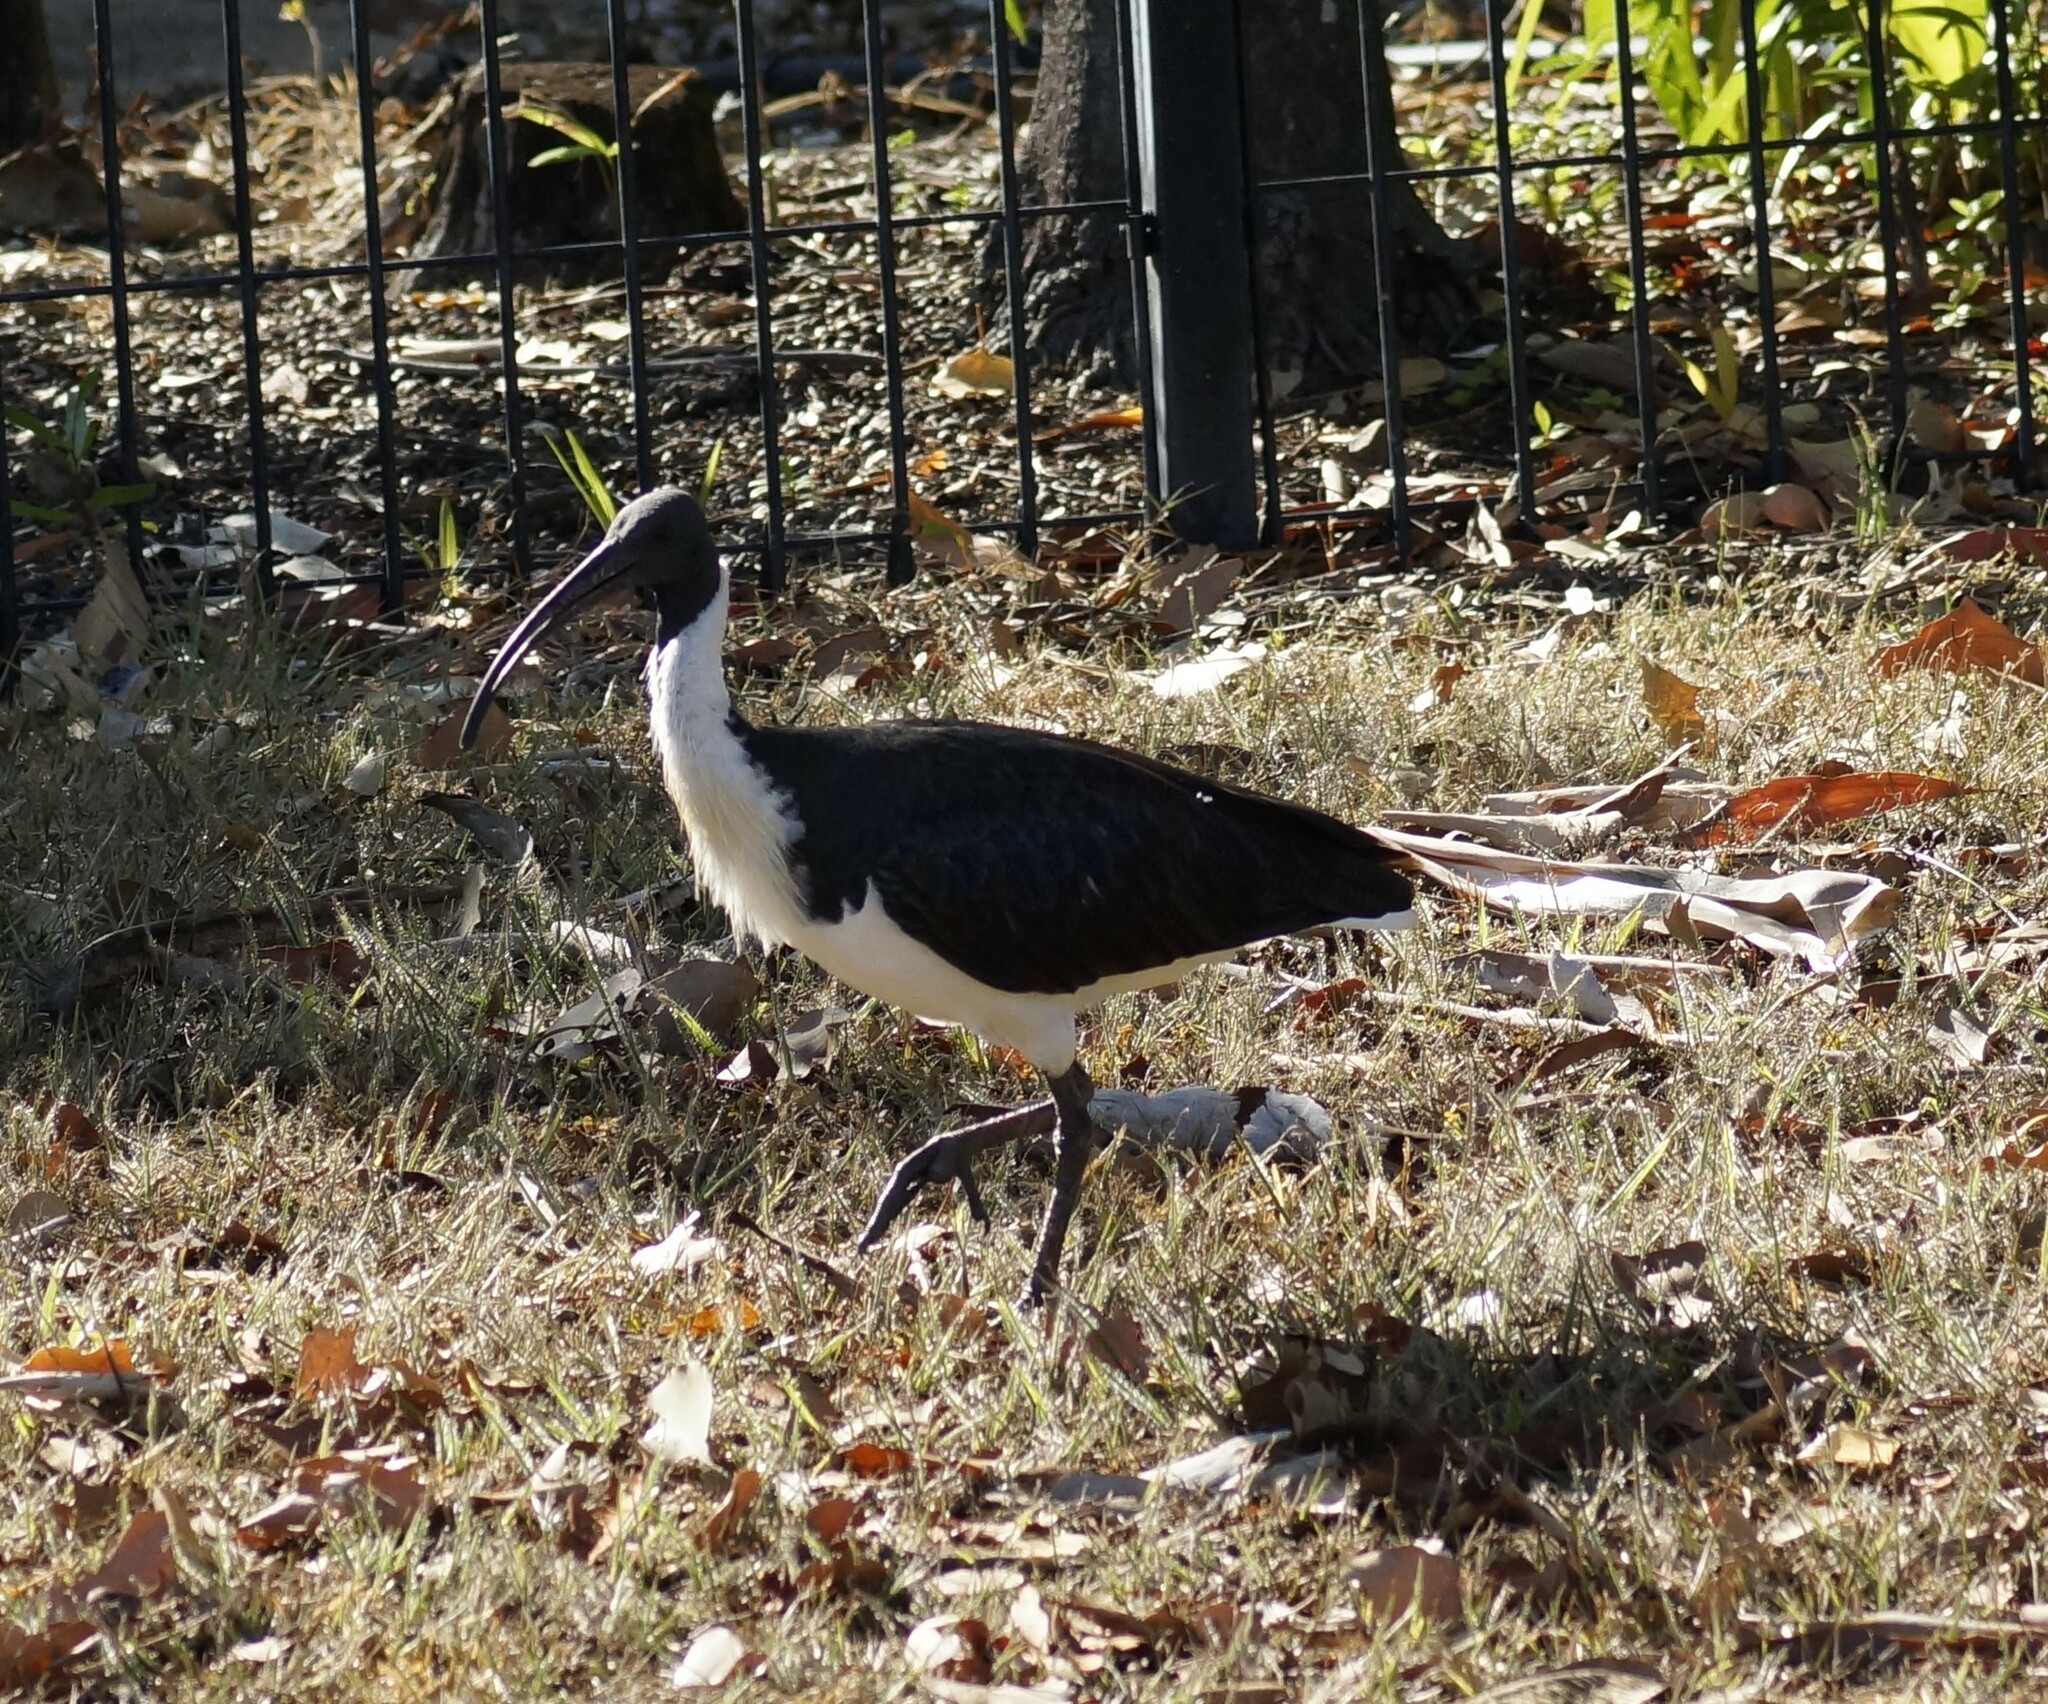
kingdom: Animalia
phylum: Chordata
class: Aves
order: Pelecaniformes
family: Threskiornithidae
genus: Threskiornis
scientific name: Threskiornis spinicollis
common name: Straw-necked ibis
